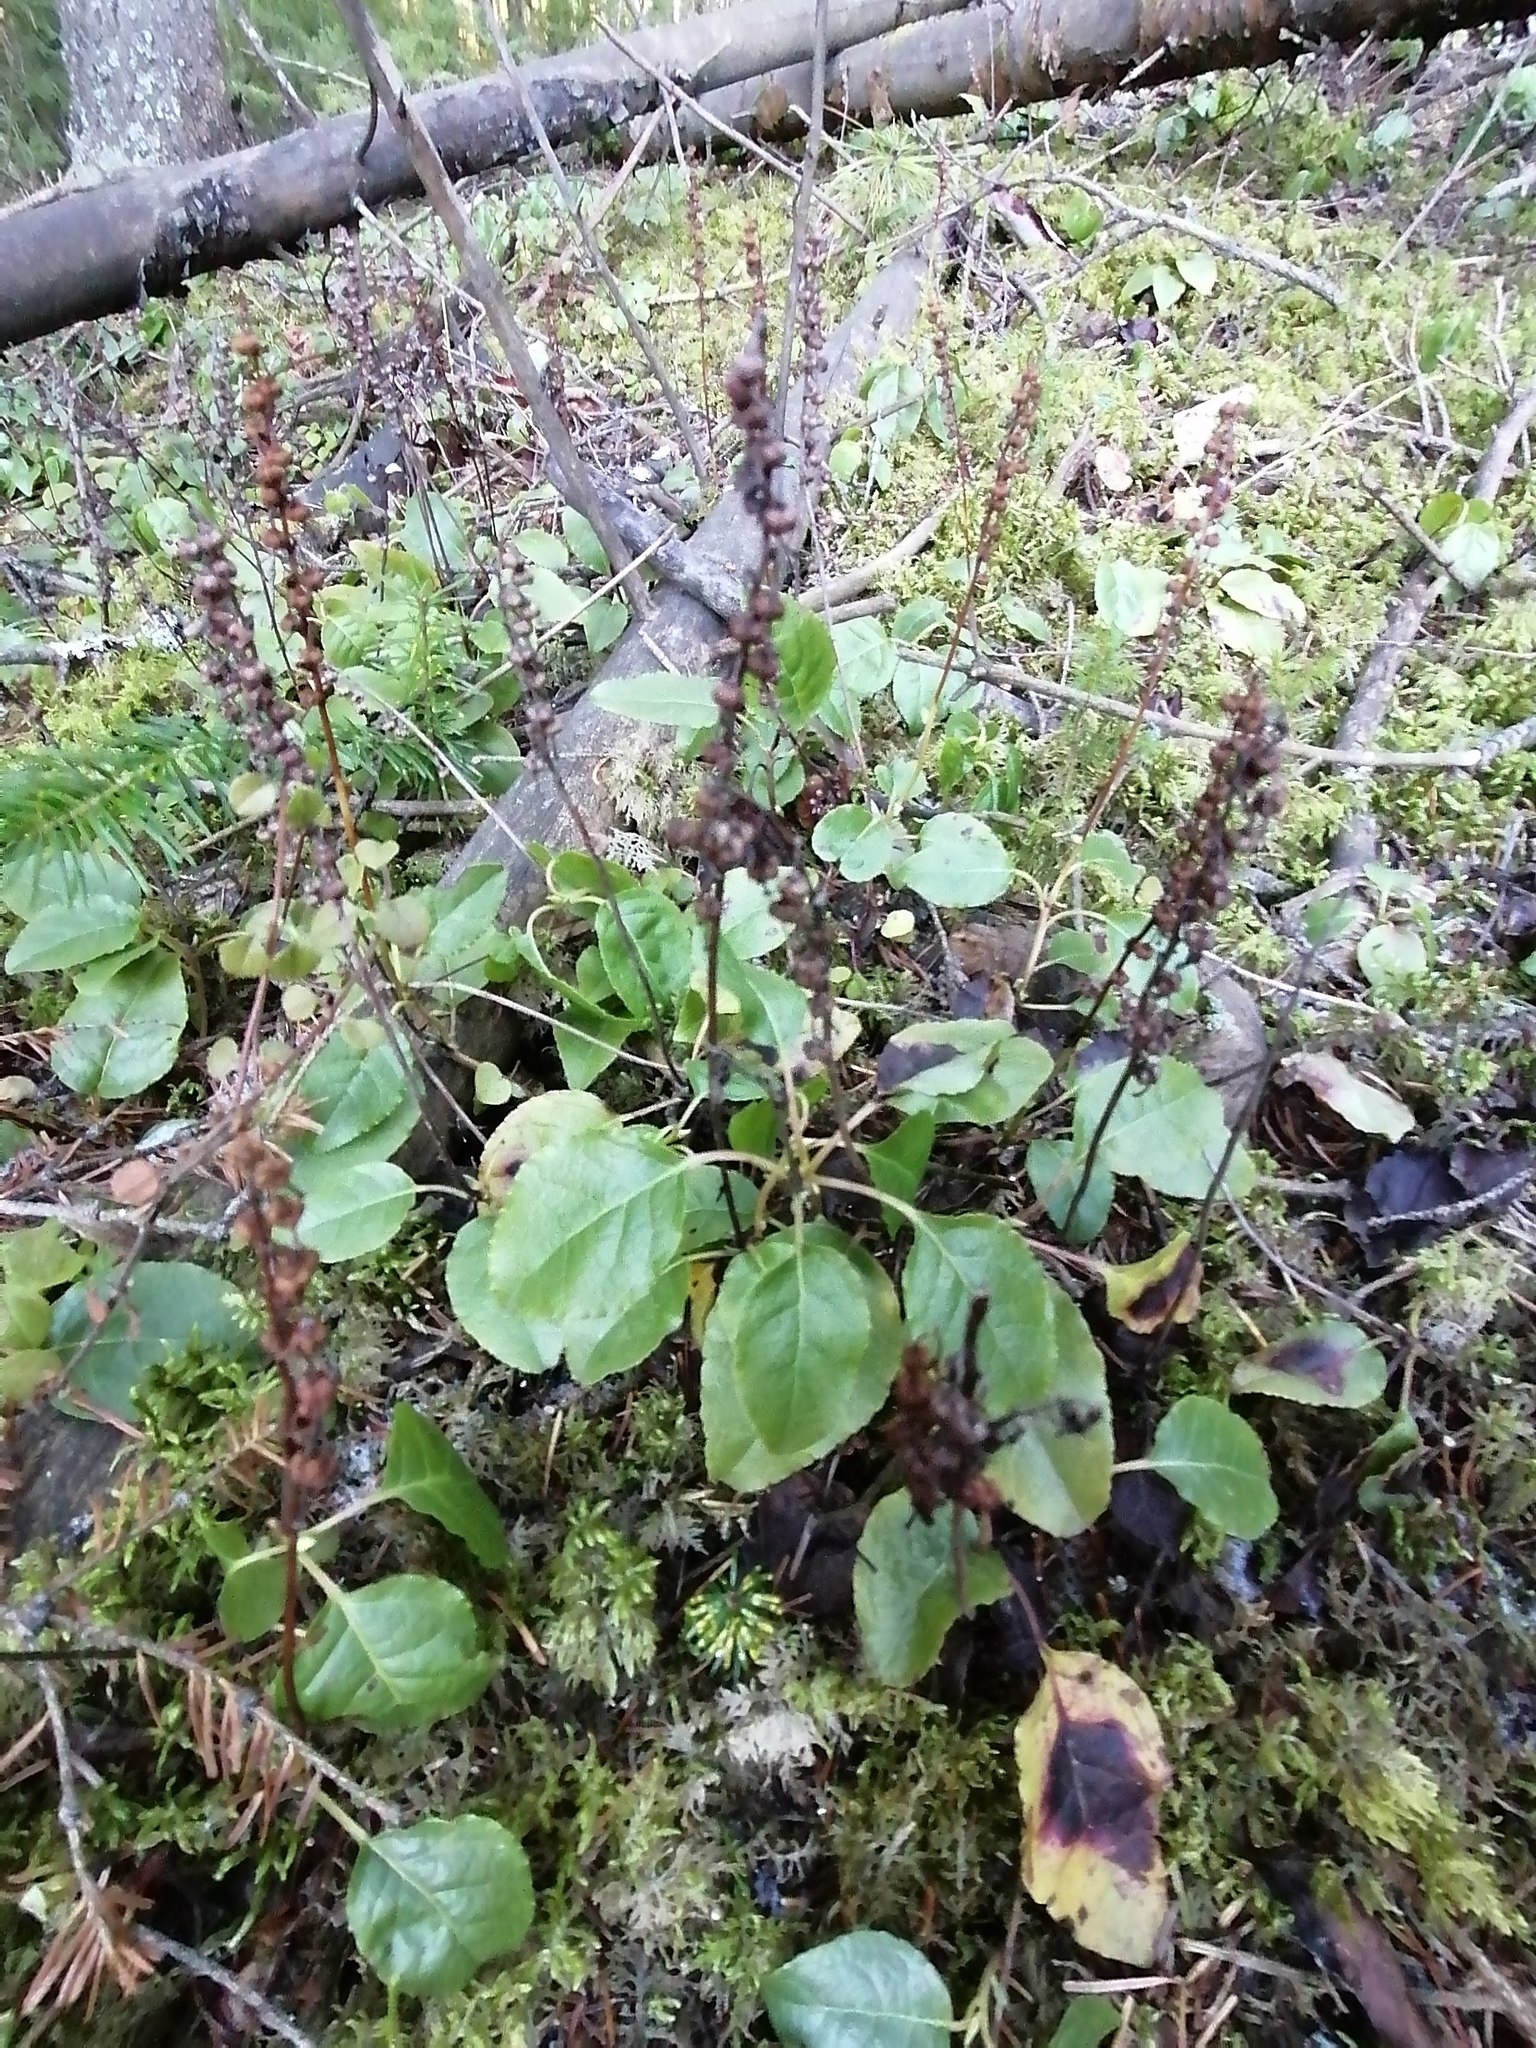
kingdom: Plantae
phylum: Tracheophyta
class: Magnoliopsida
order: Ericales
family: Ericaceae
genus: Orthilia
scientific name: Orthilia secunda
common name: One-sided orthilia
